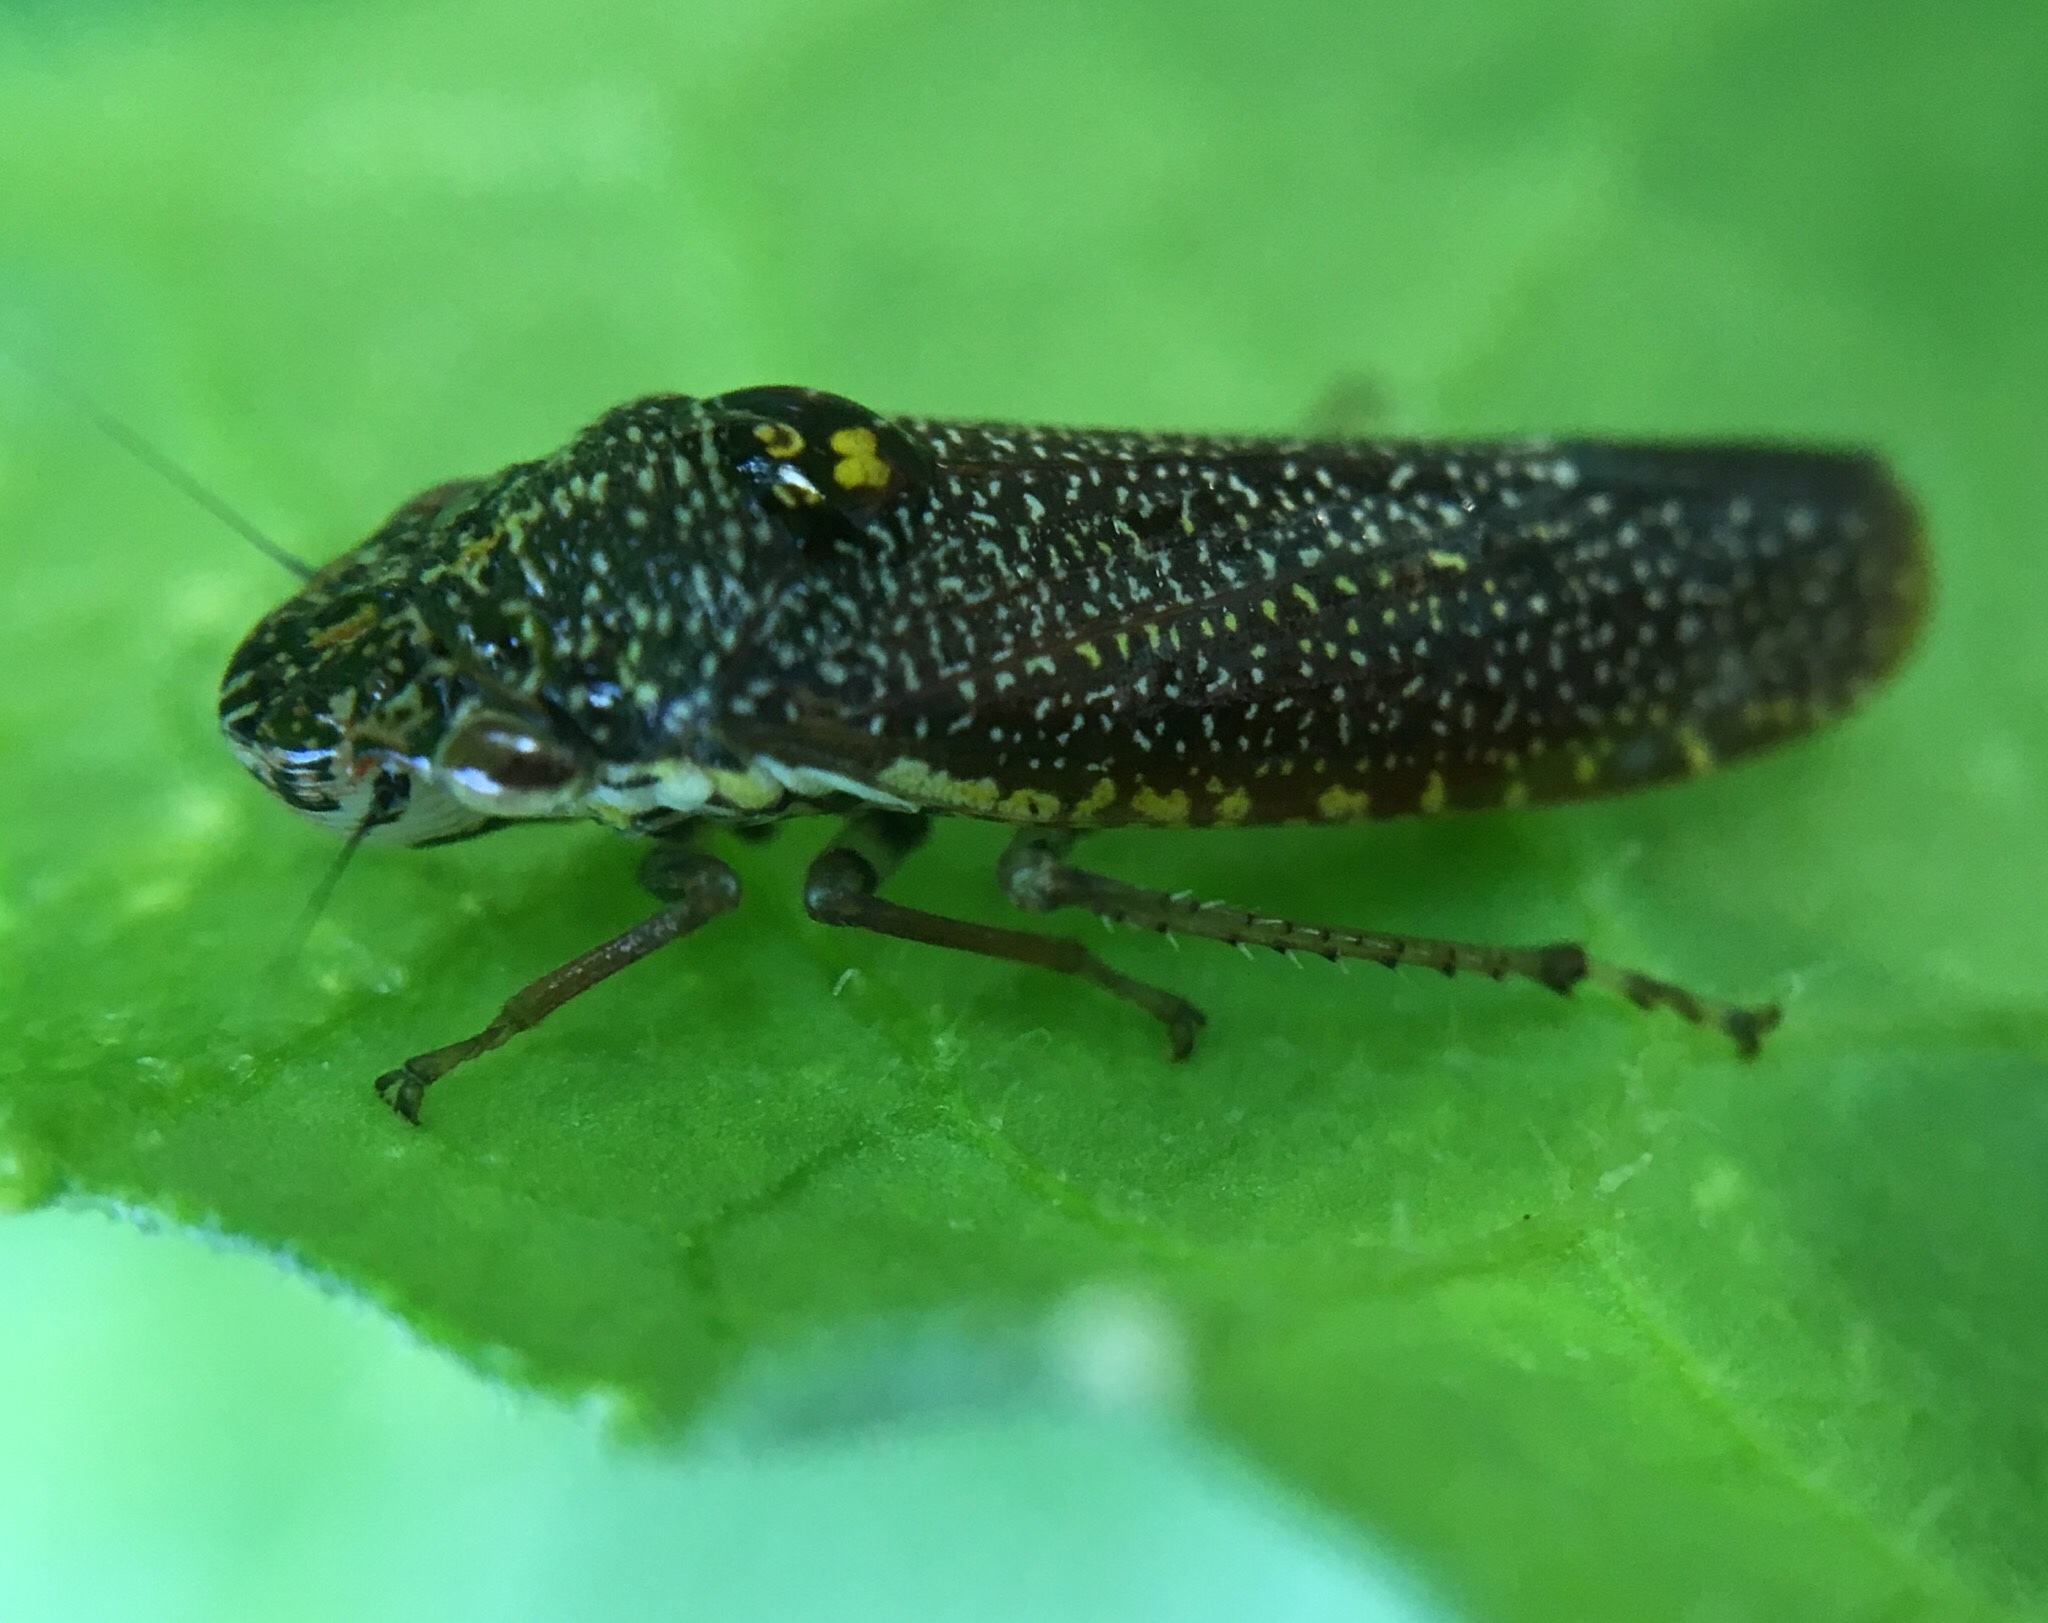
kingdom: Animalia
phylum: Arthropoda
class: Insecta
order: Hemiptera
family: Cicadellidae
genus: Paraulacizes
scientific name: Paraulacizes irrorata
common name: Speckled sharpshooter
